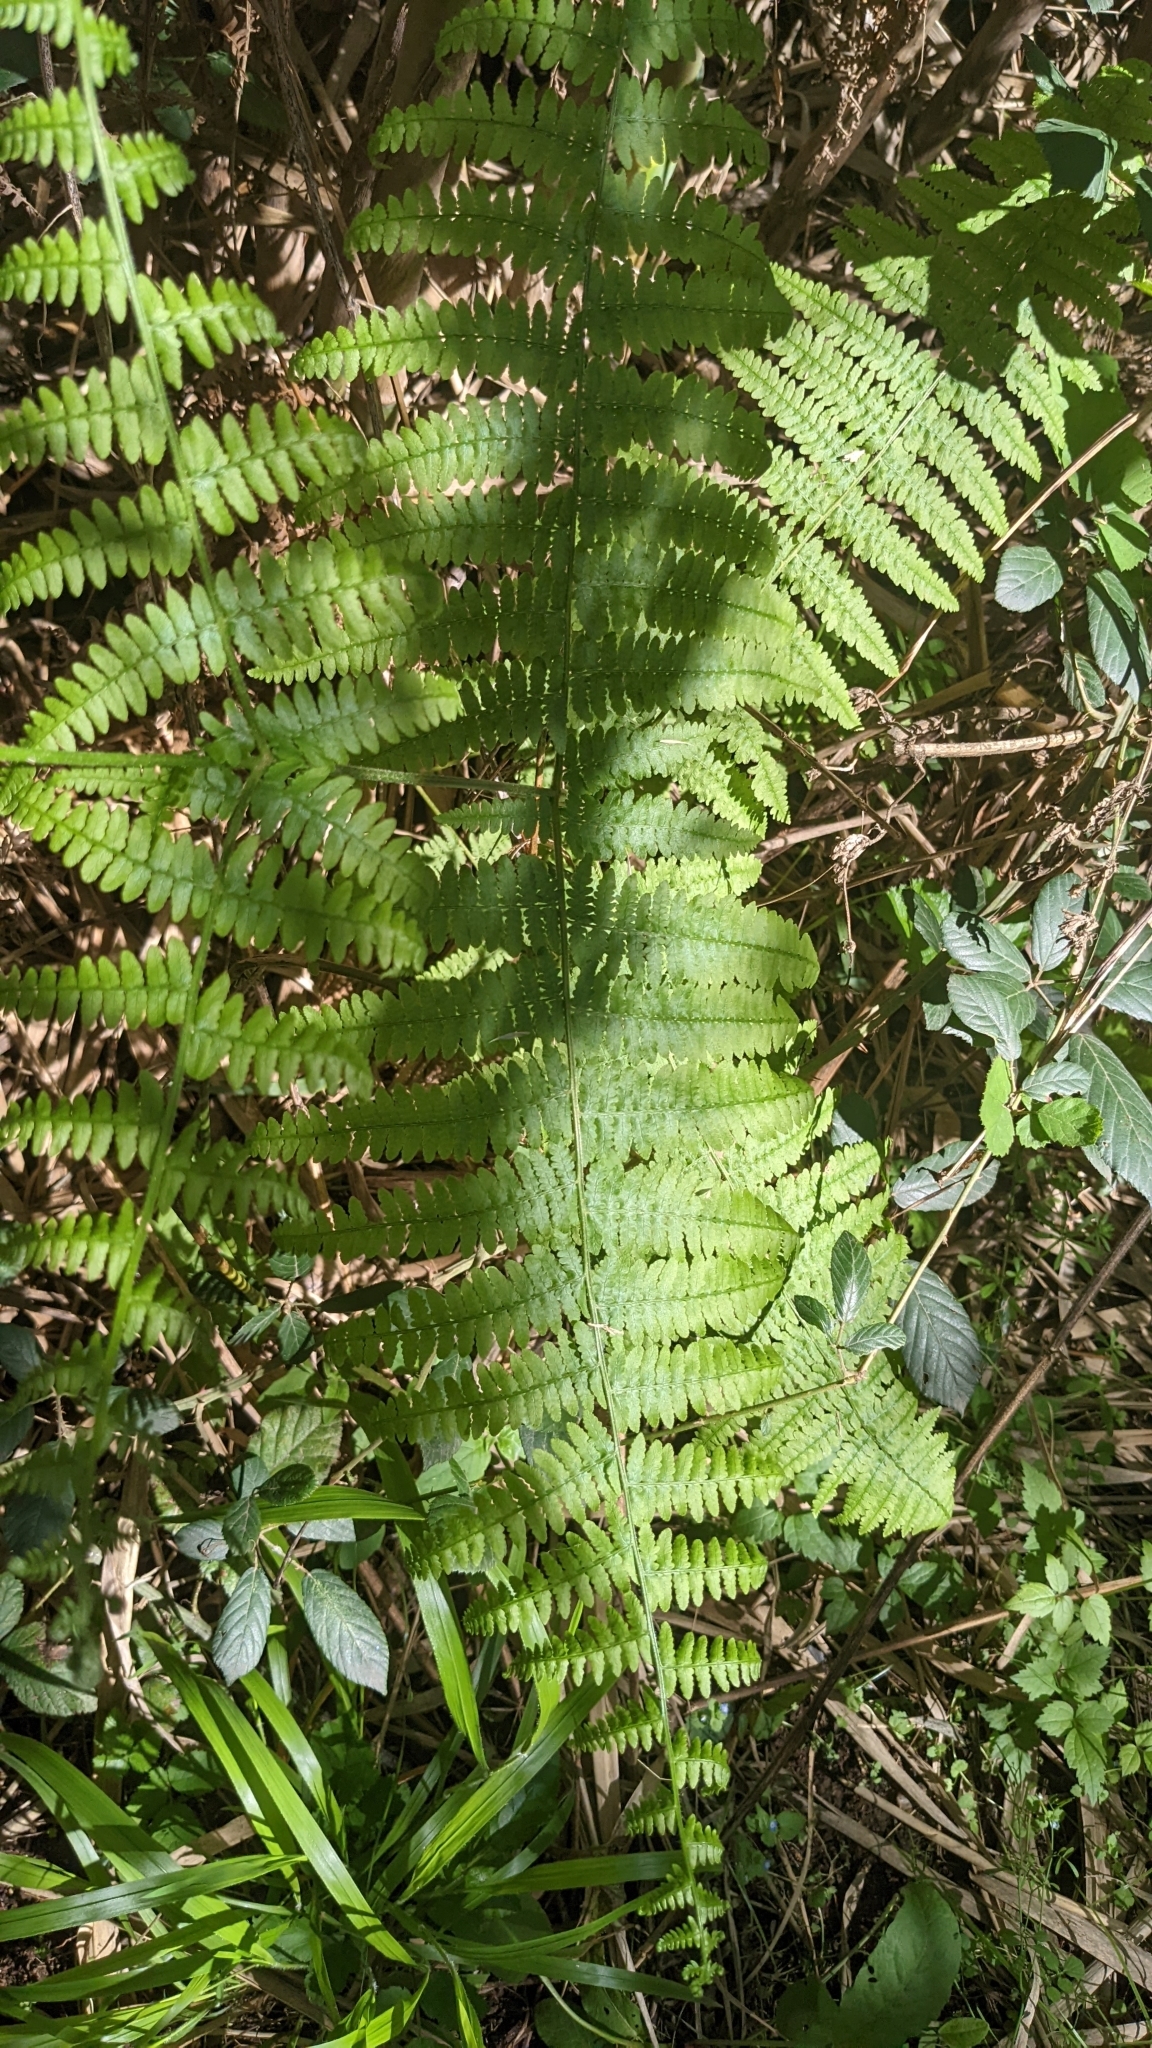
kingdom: Plantae
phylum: Tracheophyta
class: Polypodiopsida
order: Polypodiales
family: Dennstaedtiaceae
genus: Pteridium
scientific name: Pteridium aquilinum
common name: Bracken
